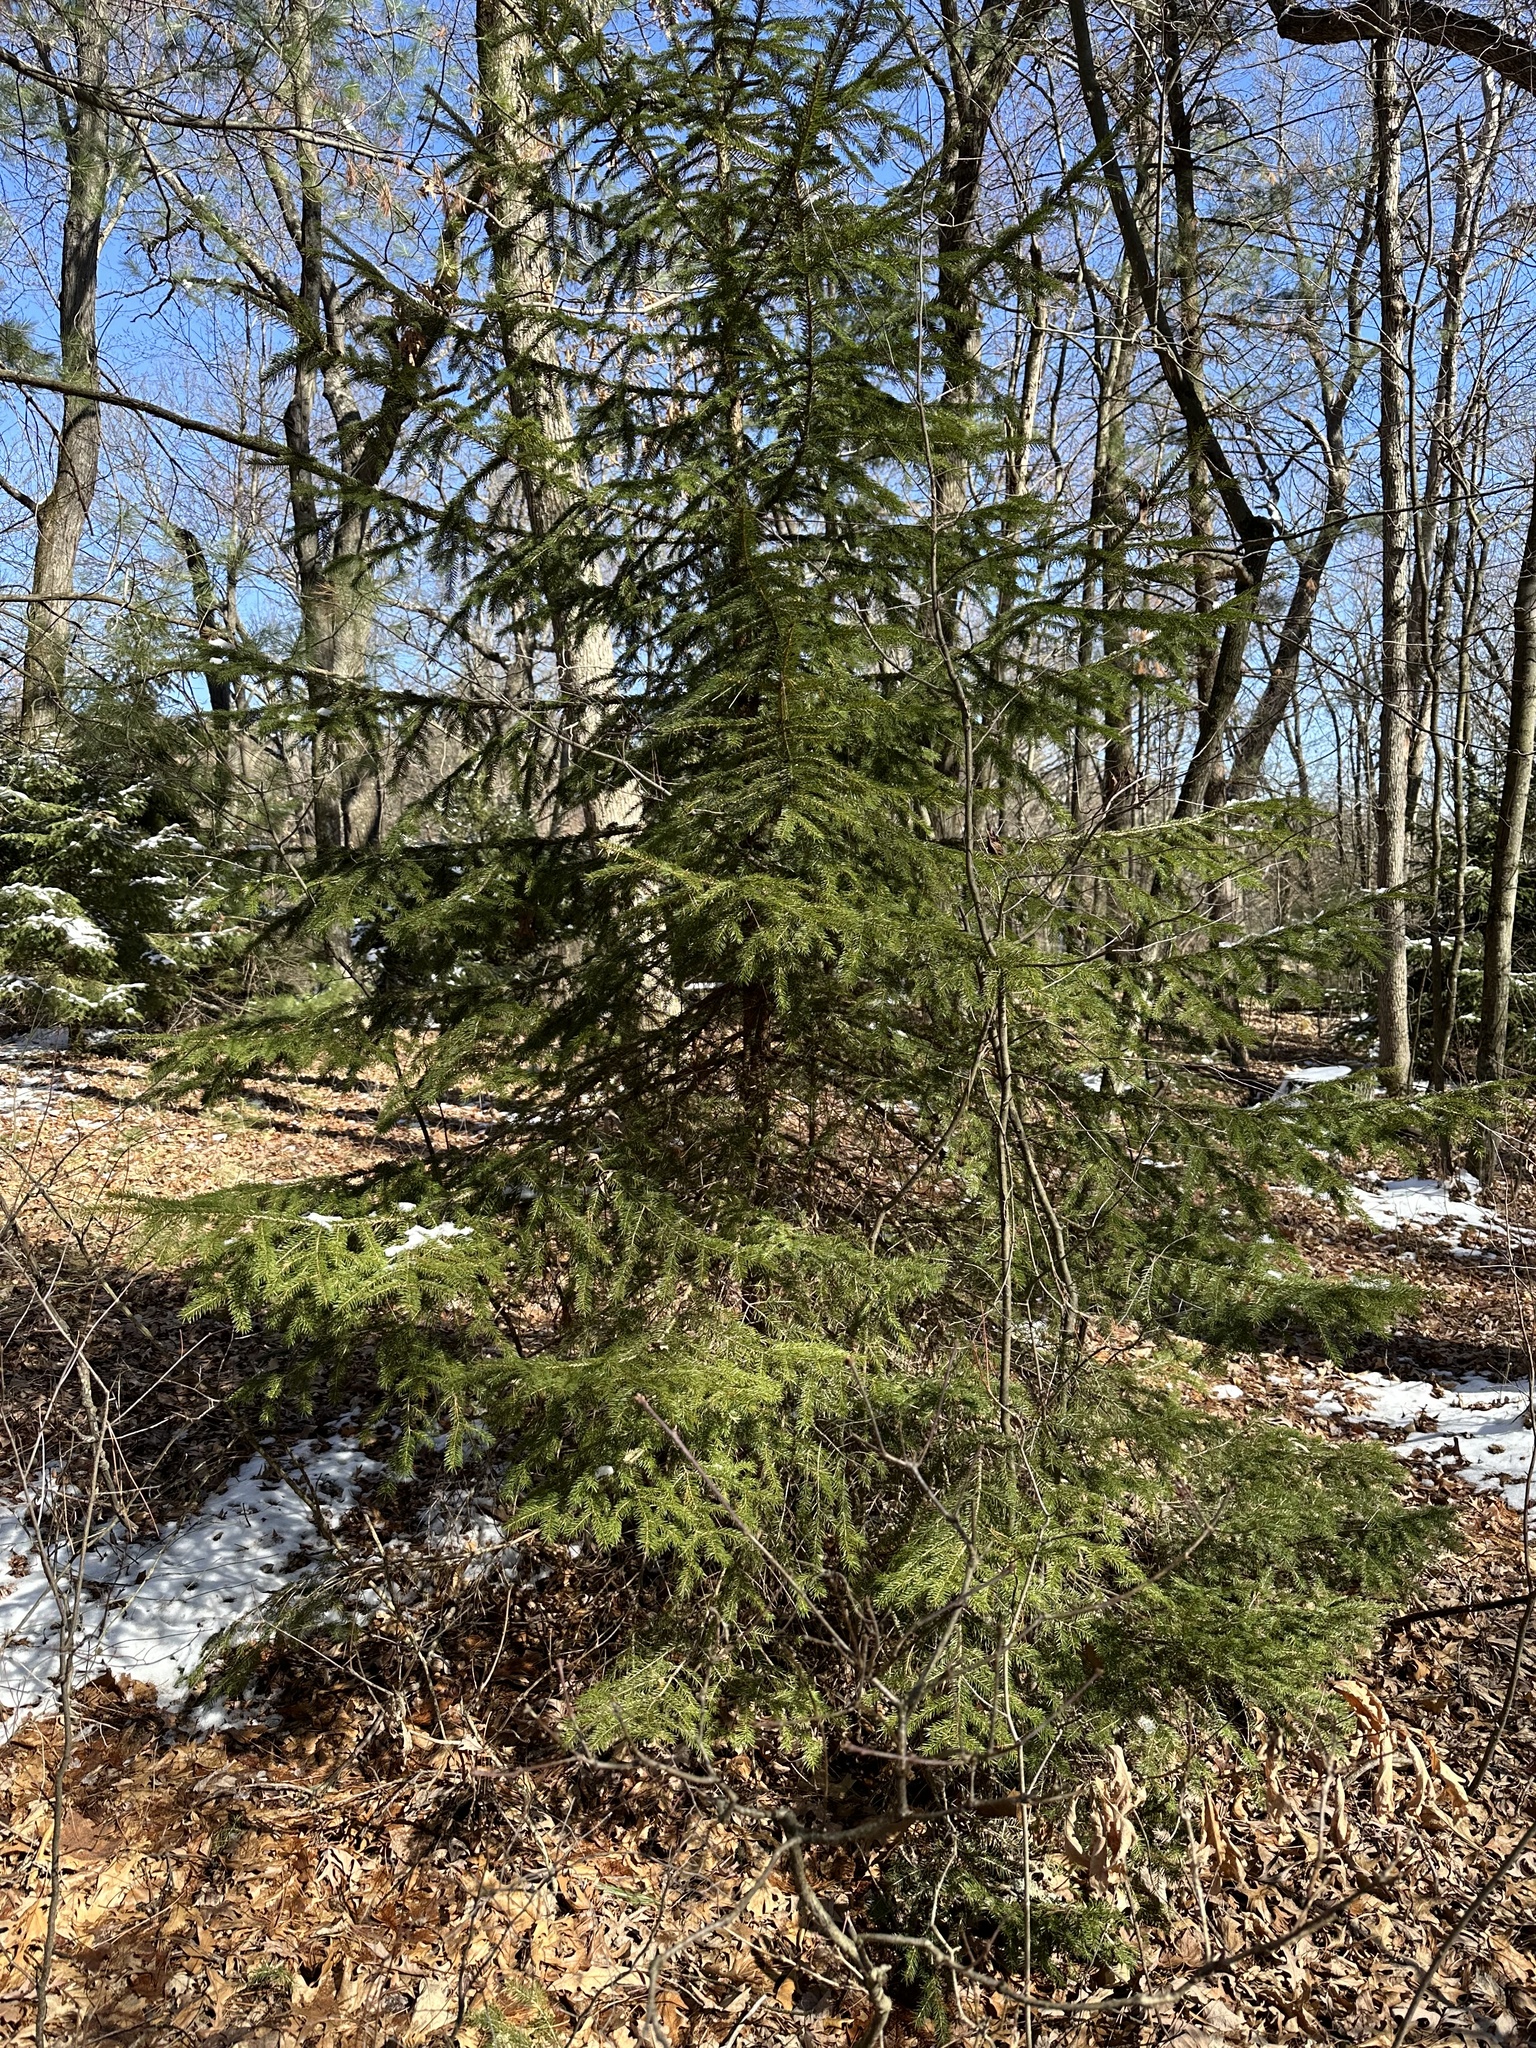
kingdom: Plantae
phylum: Tracheophyta
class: Pinopsida
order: Pinales
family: Pinaceae
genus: Picea
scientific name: Picea abies
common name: Norway spruce
